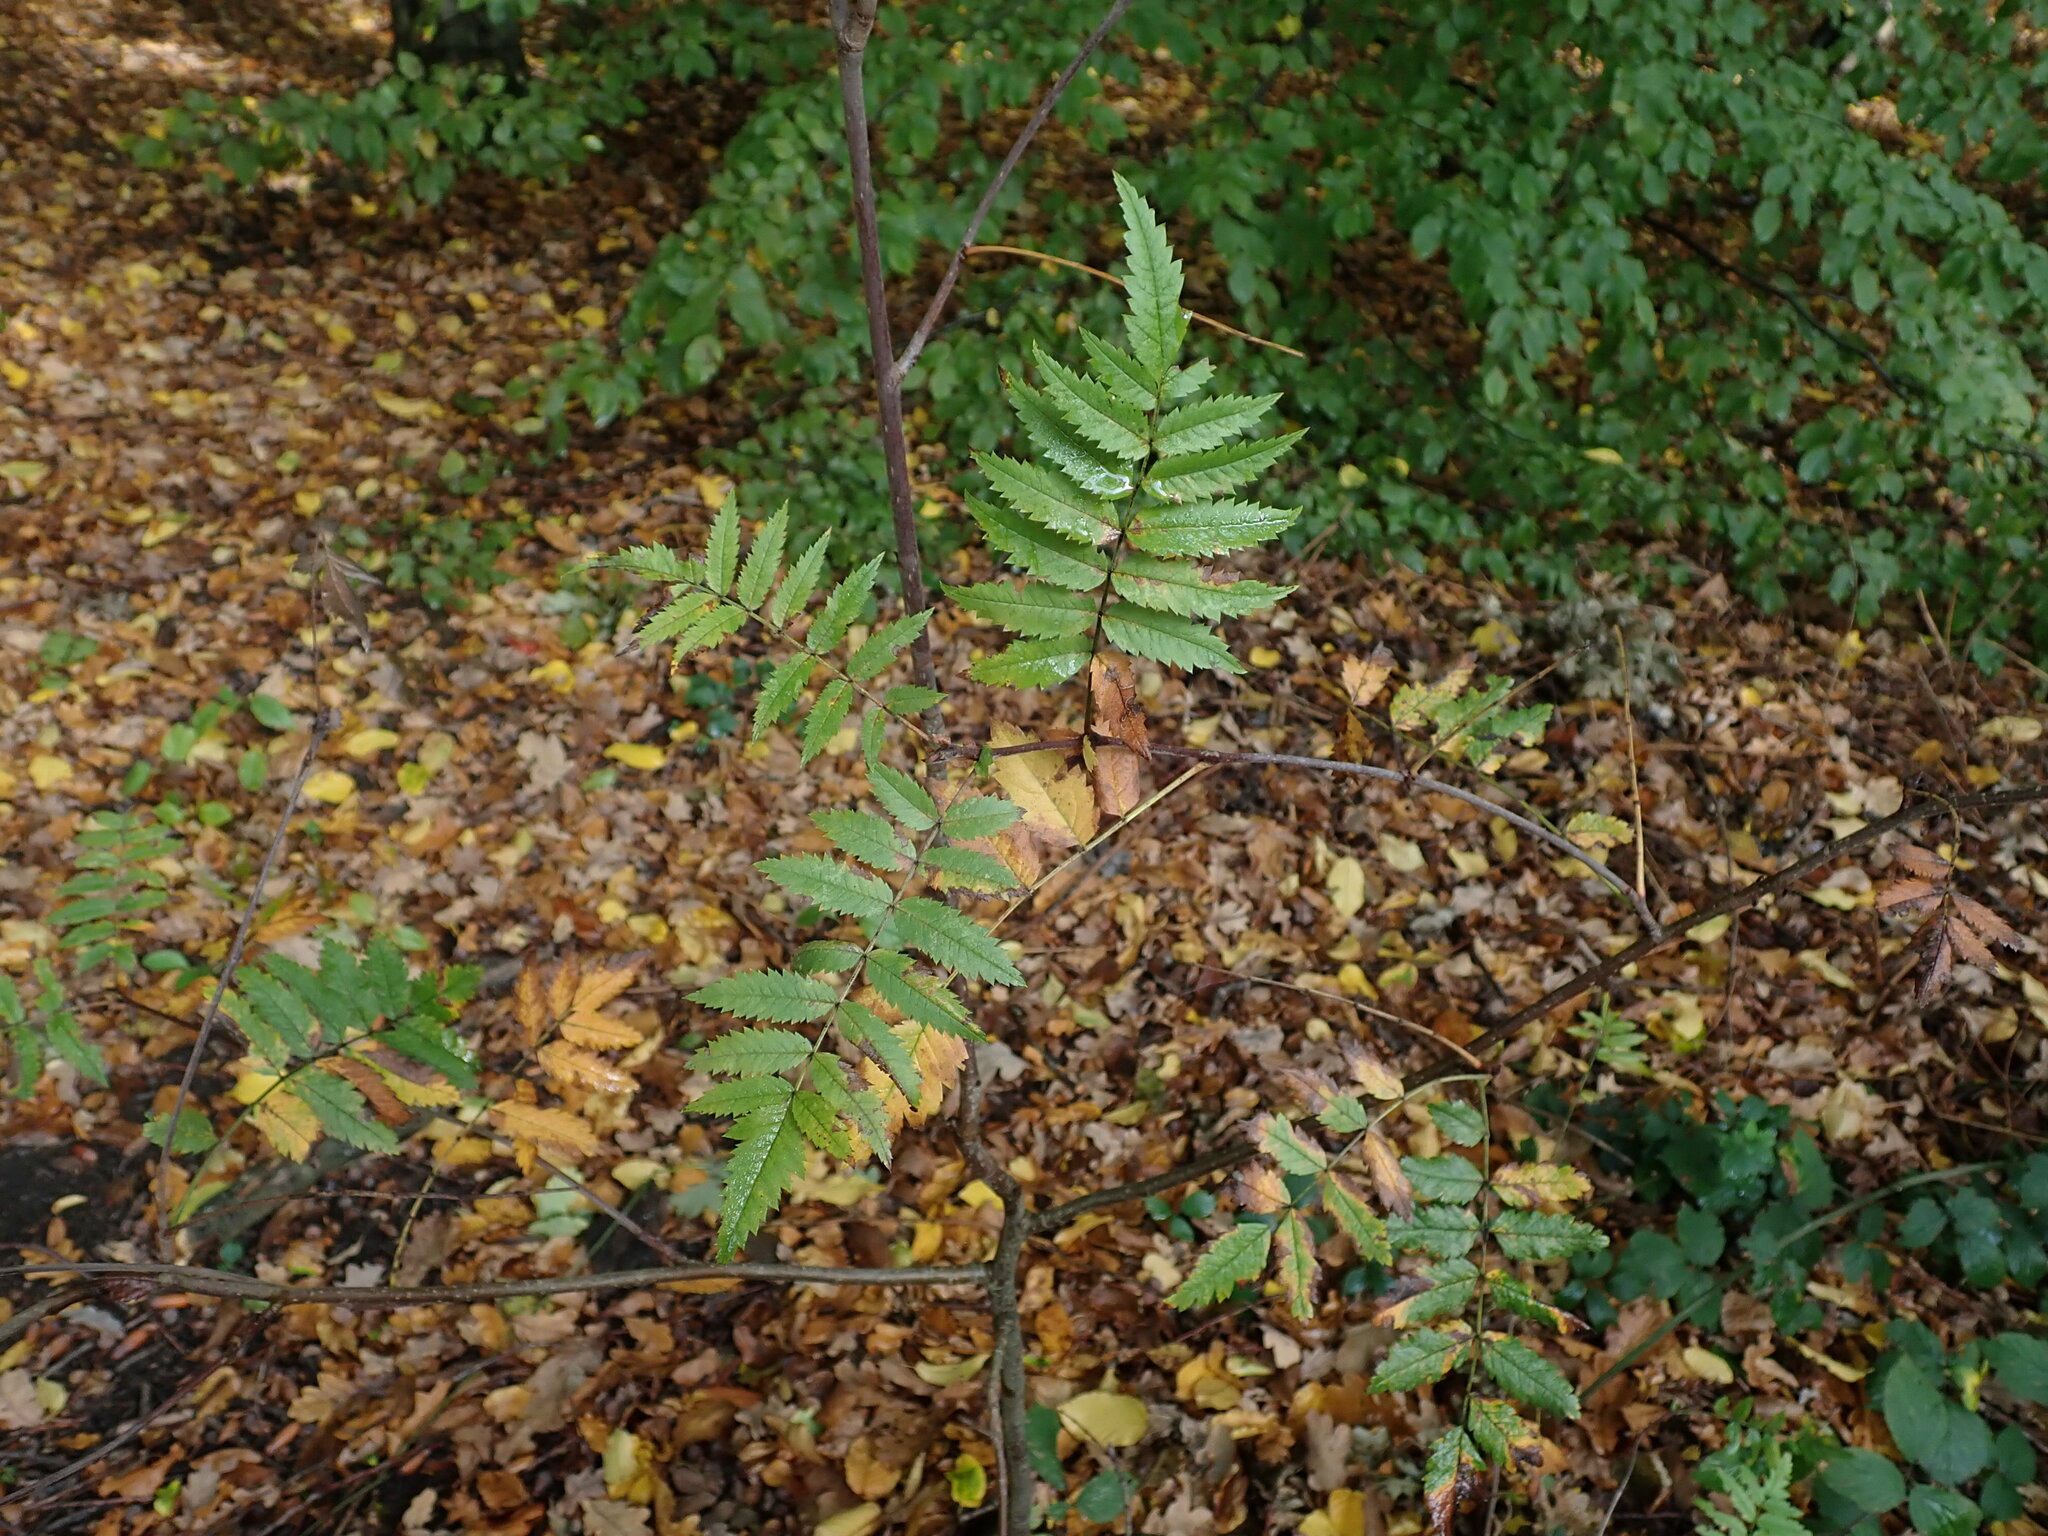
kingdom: Plantae
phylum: Tracheophyta
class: Magnoliopsida
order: Rosales
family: Rosaceae
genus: Sorbus
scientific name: Sorbus aucuparia
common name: Rowan
